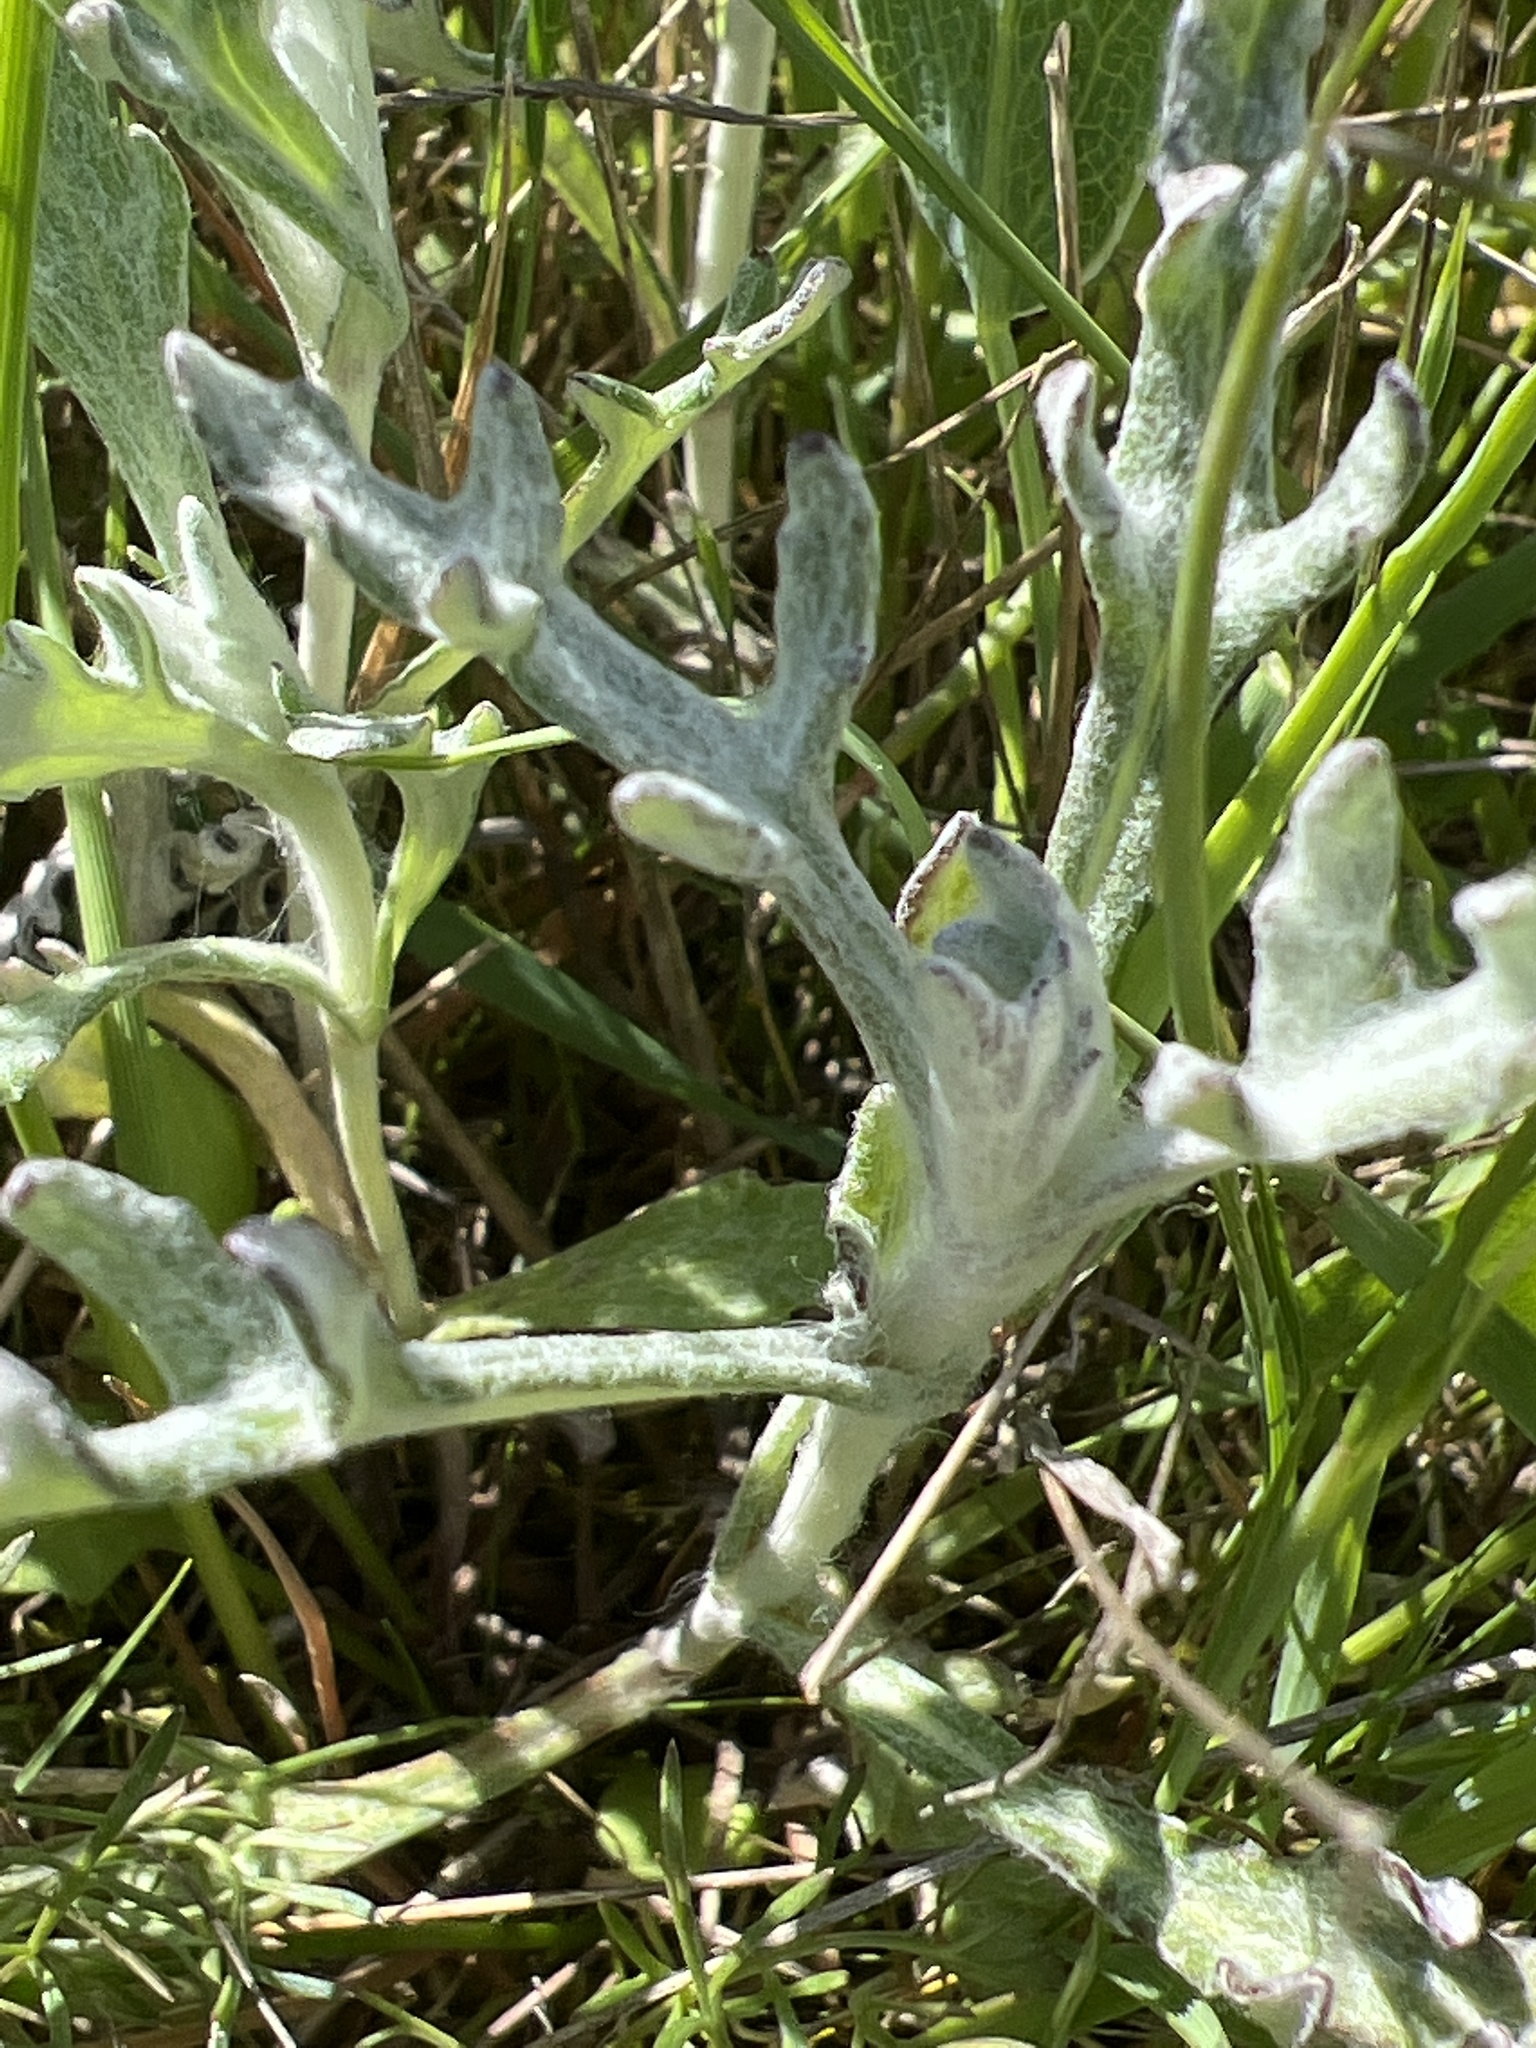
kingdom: Plantae
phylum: Tracheophyta
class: Magnoliopsida
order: Asterales
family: Asteraceae
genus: Eriophyllum
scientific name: Eriophyllum lanatum
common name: Common woolly-sunflower
